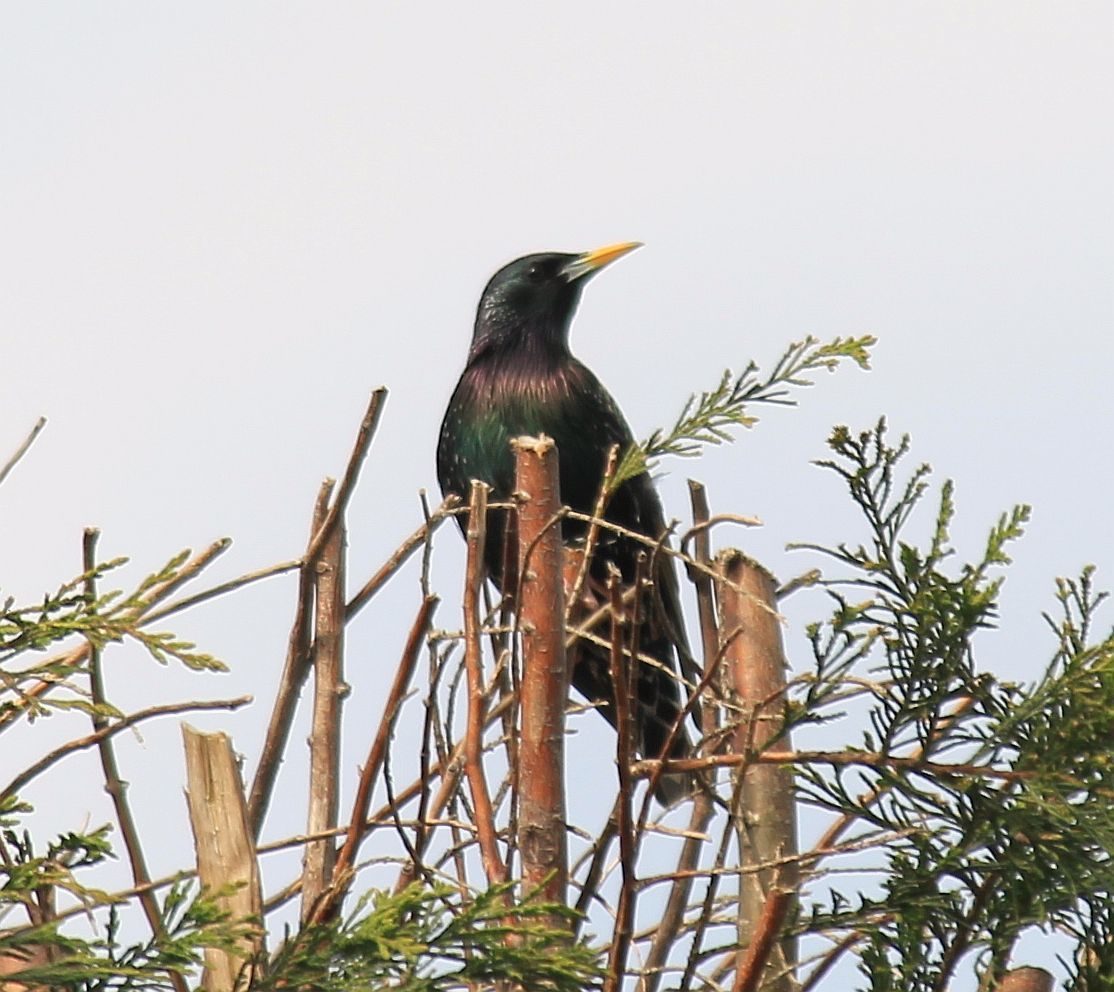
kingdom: Animalia
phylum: Chordata
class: Aves
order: Passeriformes
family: Sturnidae
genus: Sturnus
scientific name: Sturnus vulgaris
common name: Common starling
